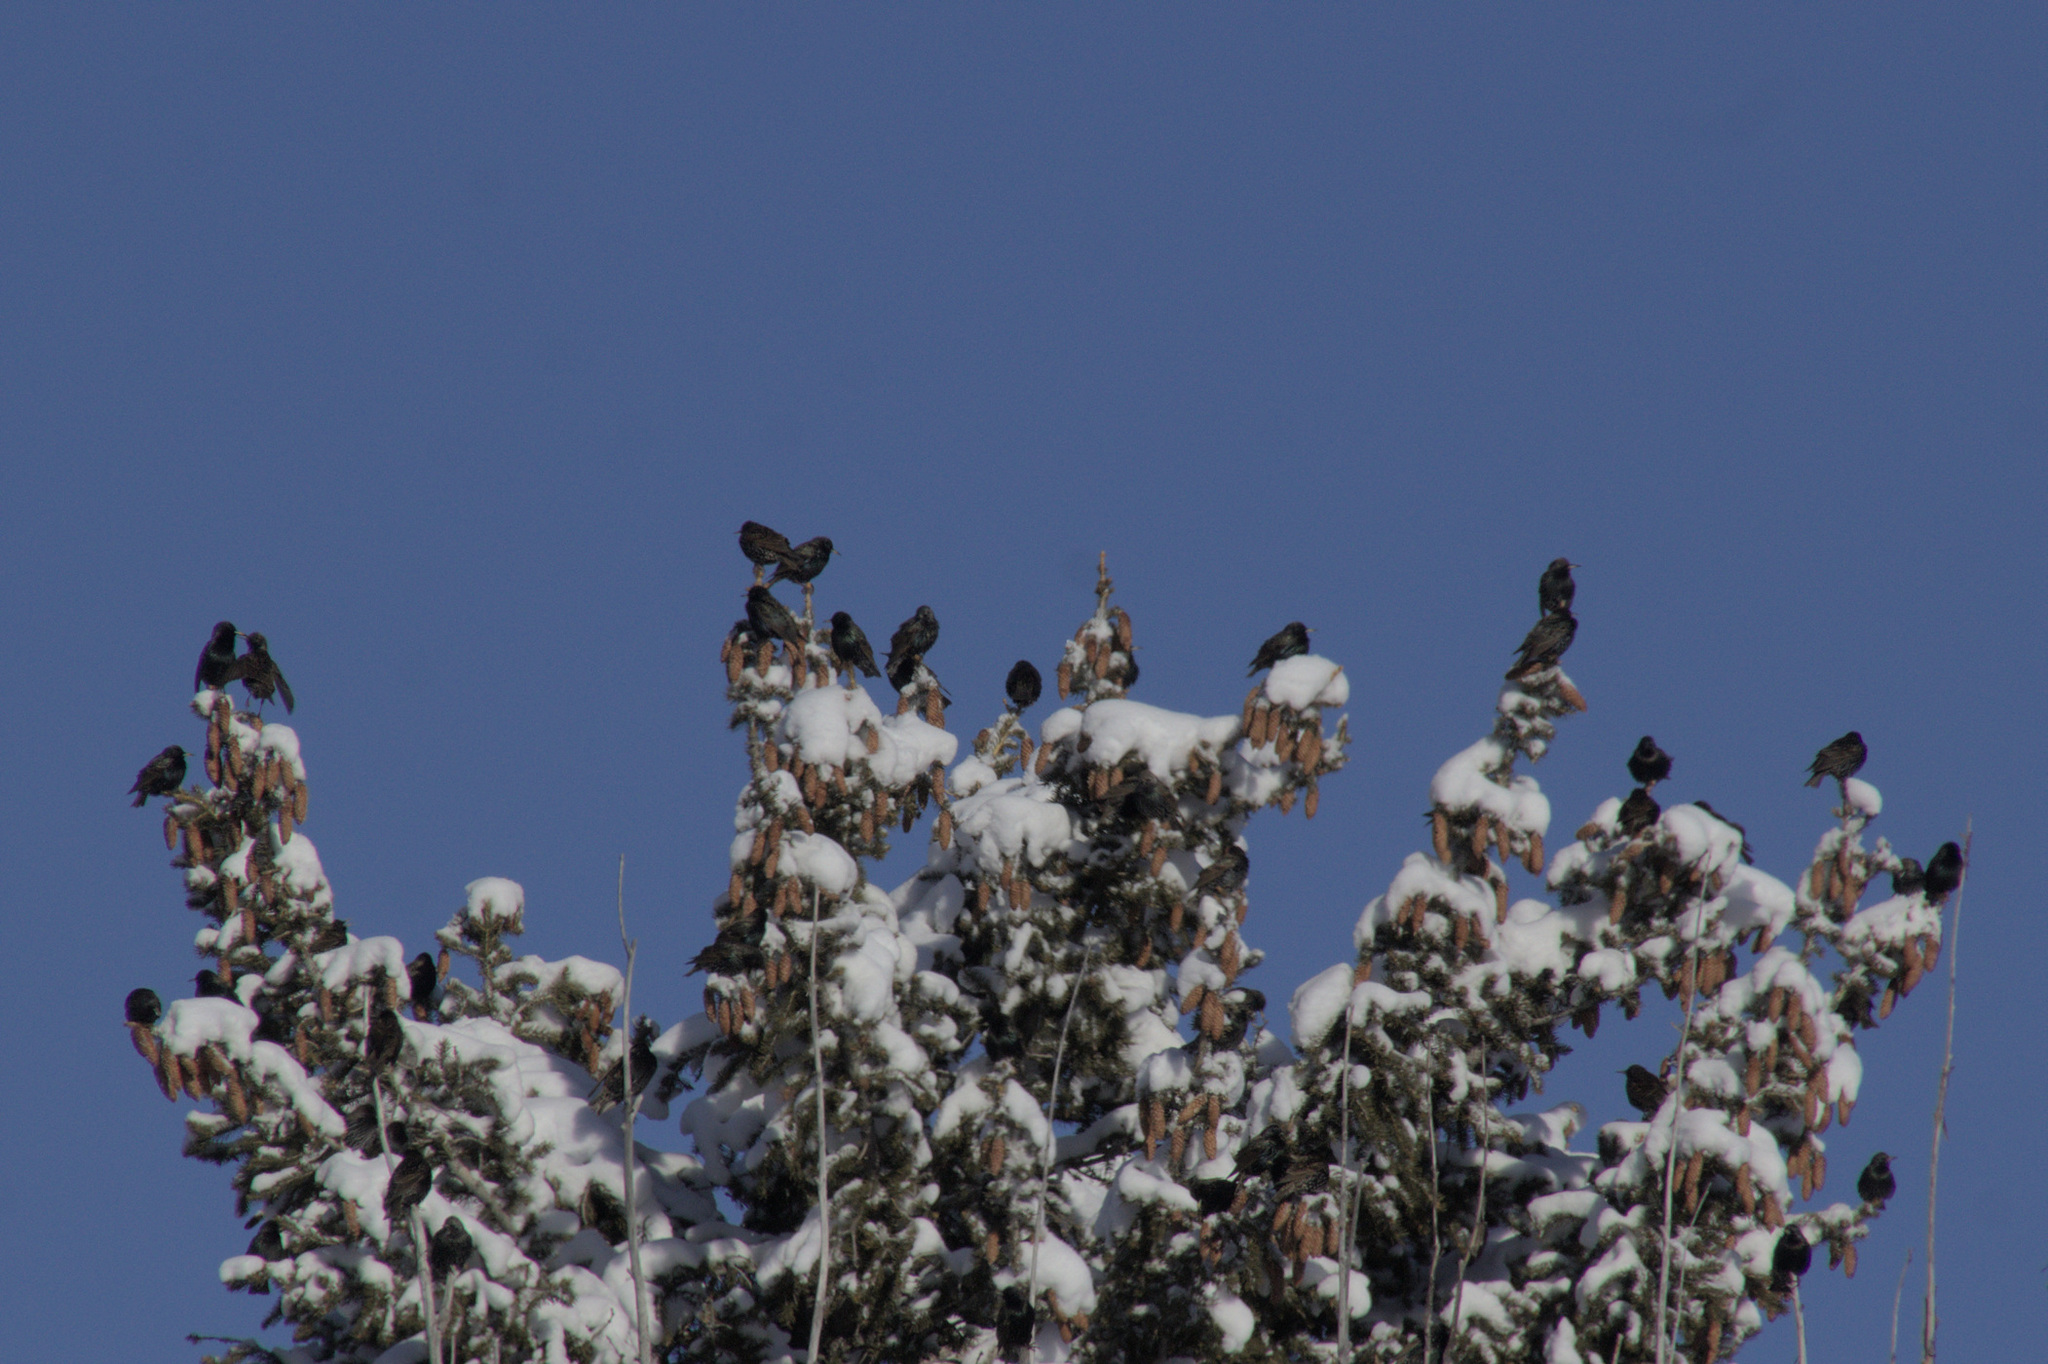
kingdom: Animalia
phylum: Chordata
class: Aves
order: Passeriformes
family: Sturnidae
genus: Sturnus
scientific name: Sturnus vulgaris
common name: Common starling
